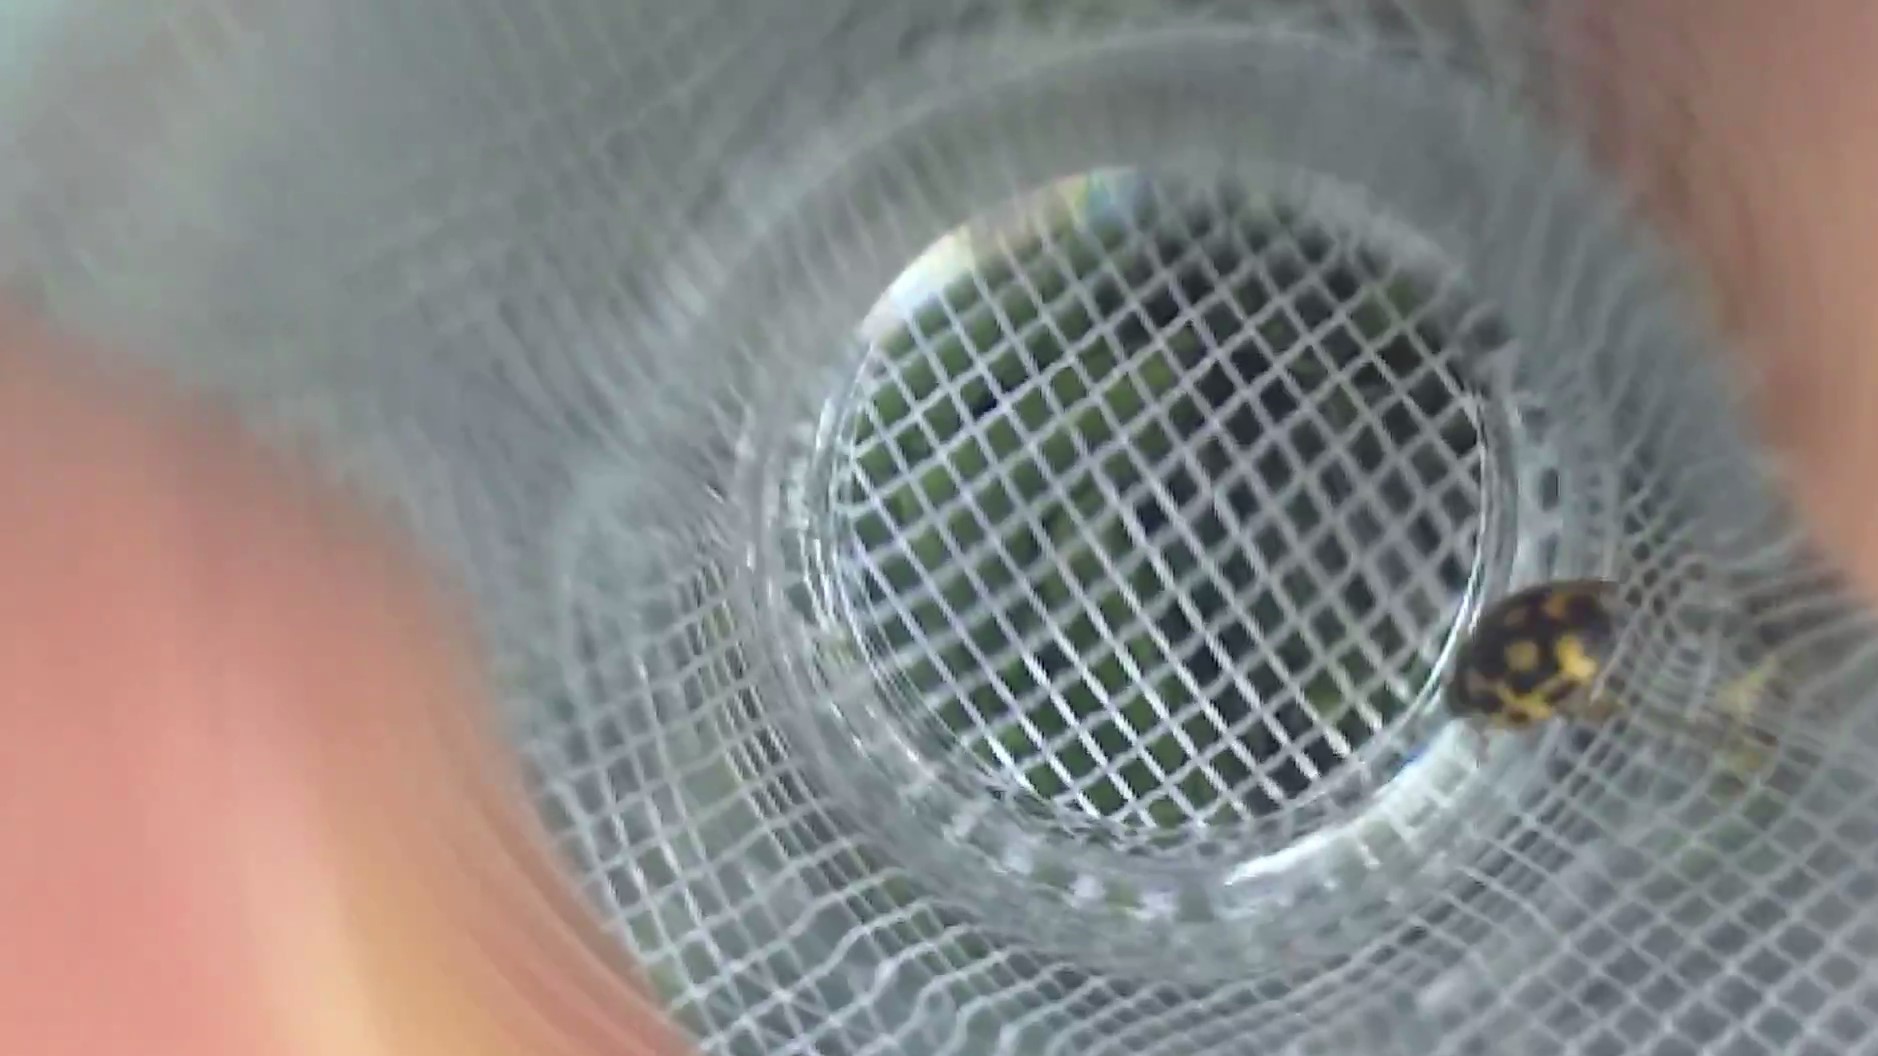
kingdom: Animalia
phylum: Arthropoda
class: Insecta
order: Coleoptera
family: Coccinellidae
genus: Propylaea
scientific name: Propylaea quatuordecimpunctata
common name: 14-spotted ladybird beetle
